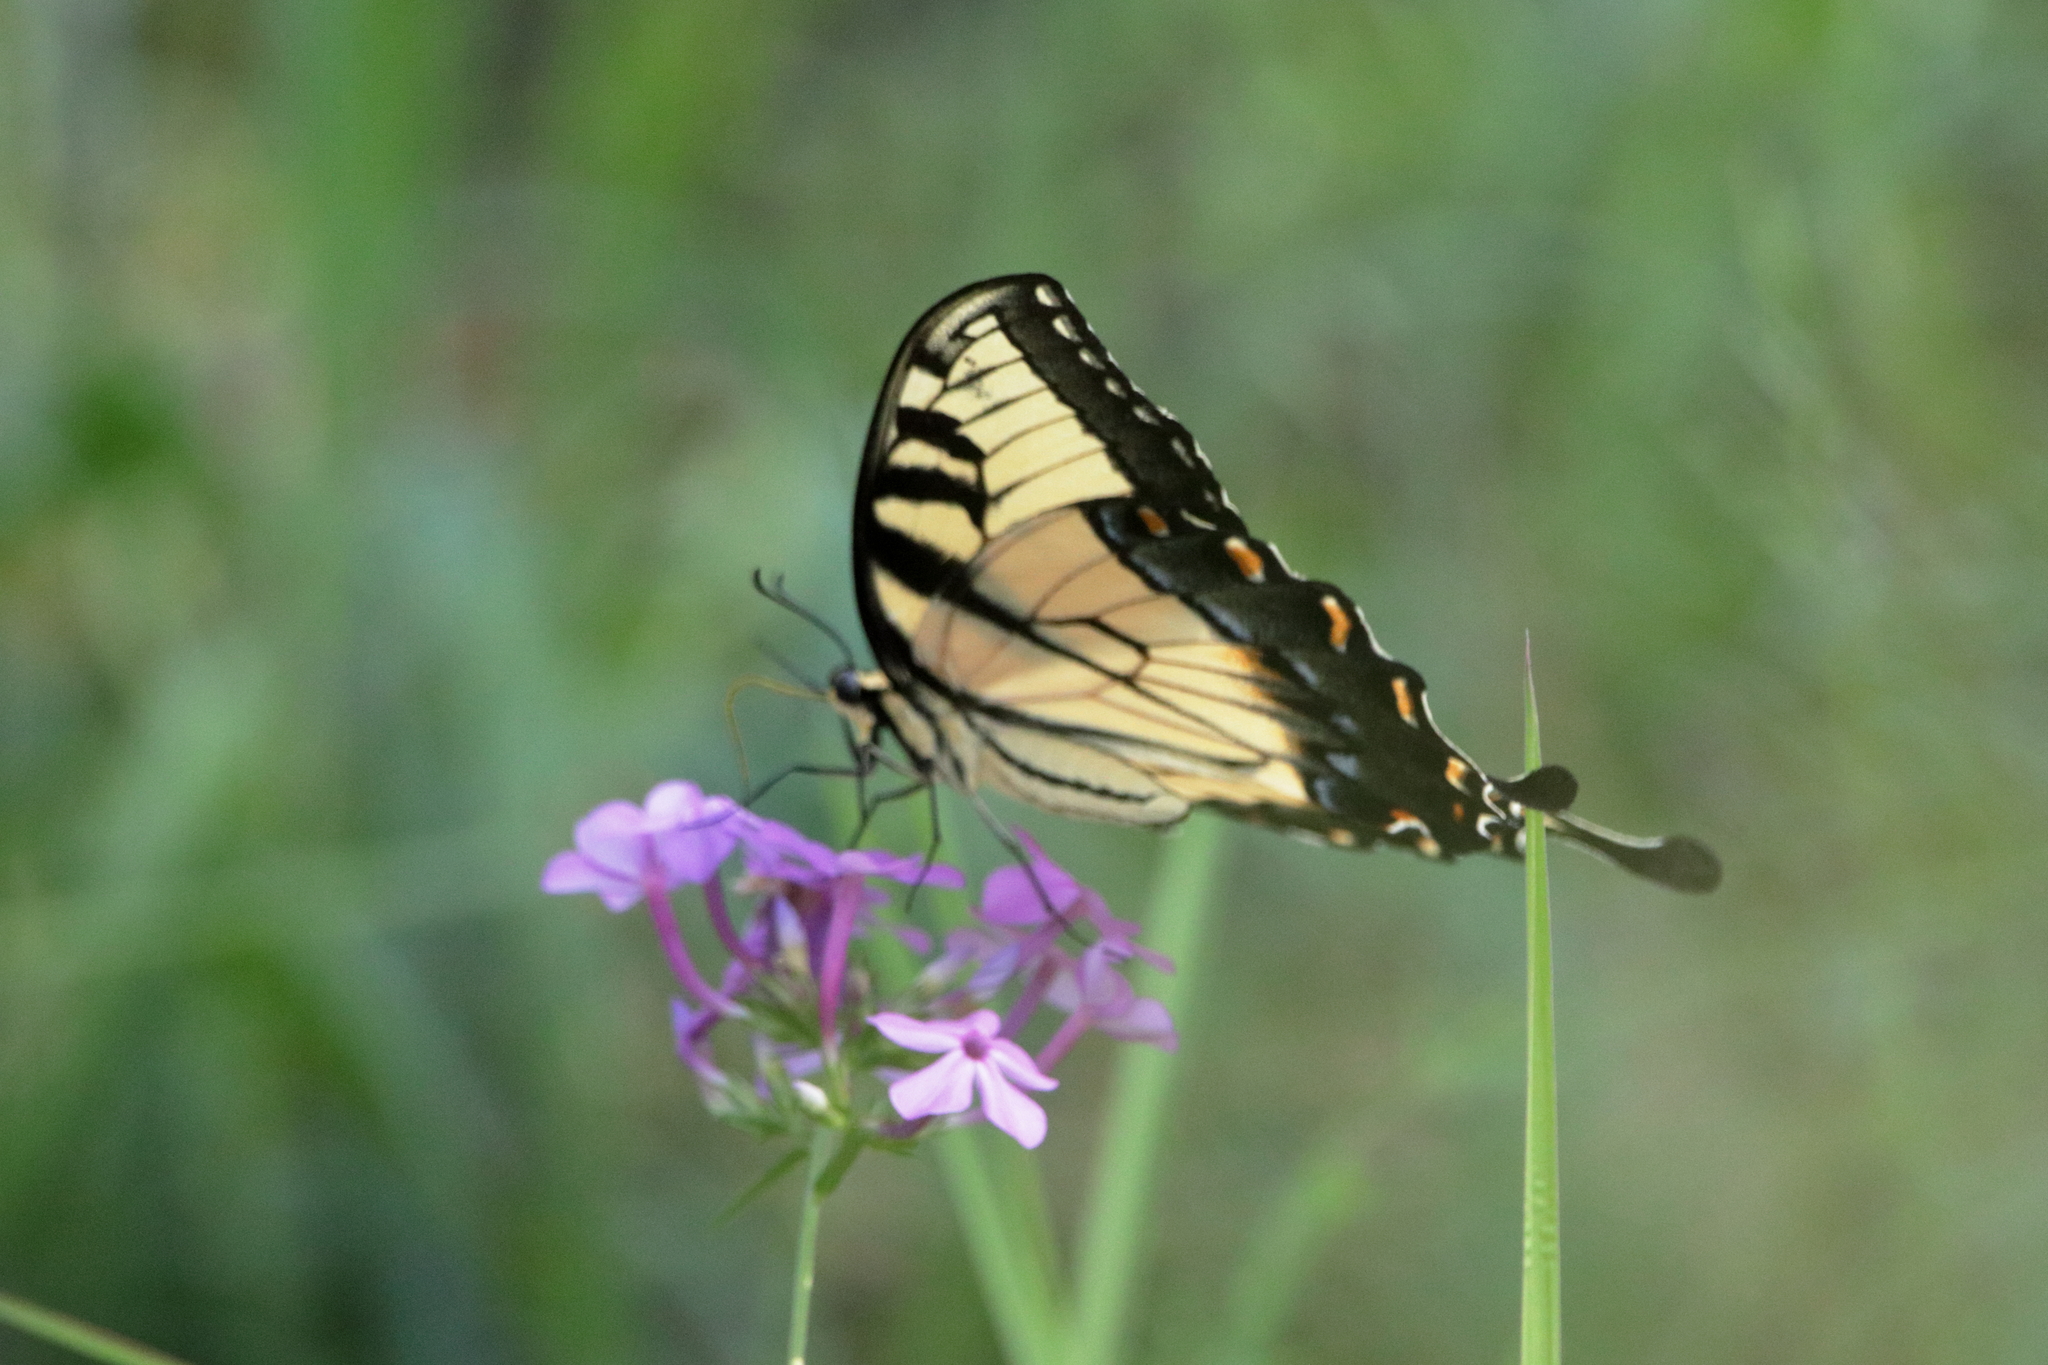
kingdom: Animalia
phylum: Arthropoda
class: Insecta
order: Lepidoptera
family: Papilionidae
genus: Papilio
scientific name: Papilio glaucus
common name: Tiger swallowtail
